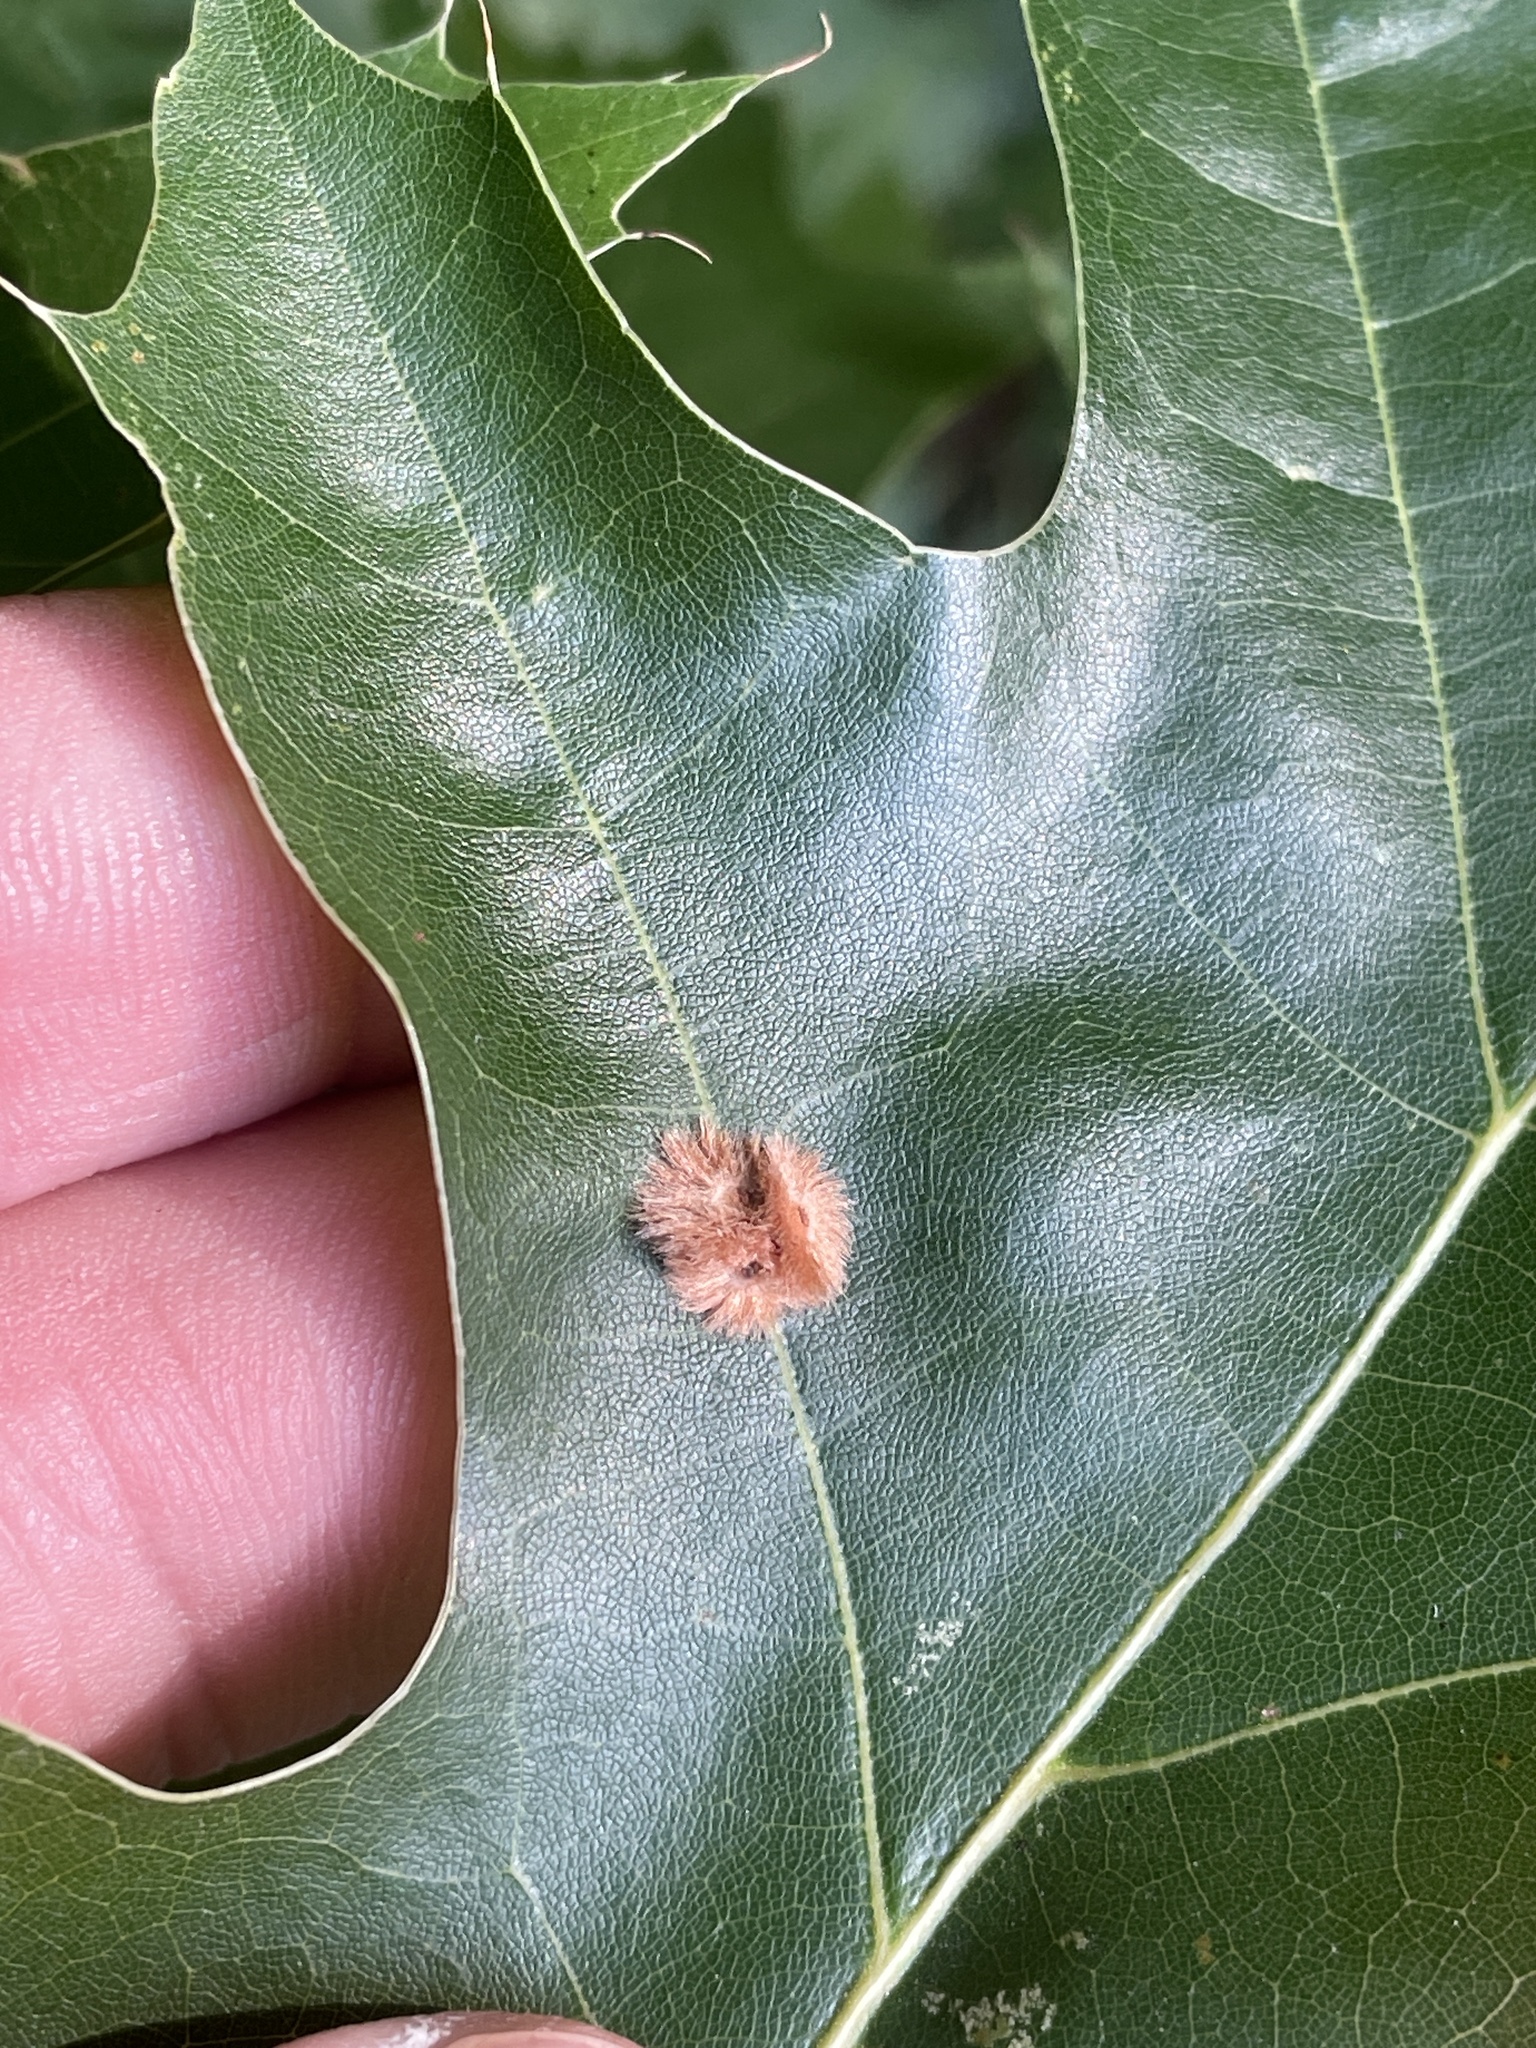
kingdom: Animalia
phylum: Arthropoda
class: Insecta
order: Hymenoptera
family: Cynipidae
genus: Callirhytis
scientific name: Callirhytis
